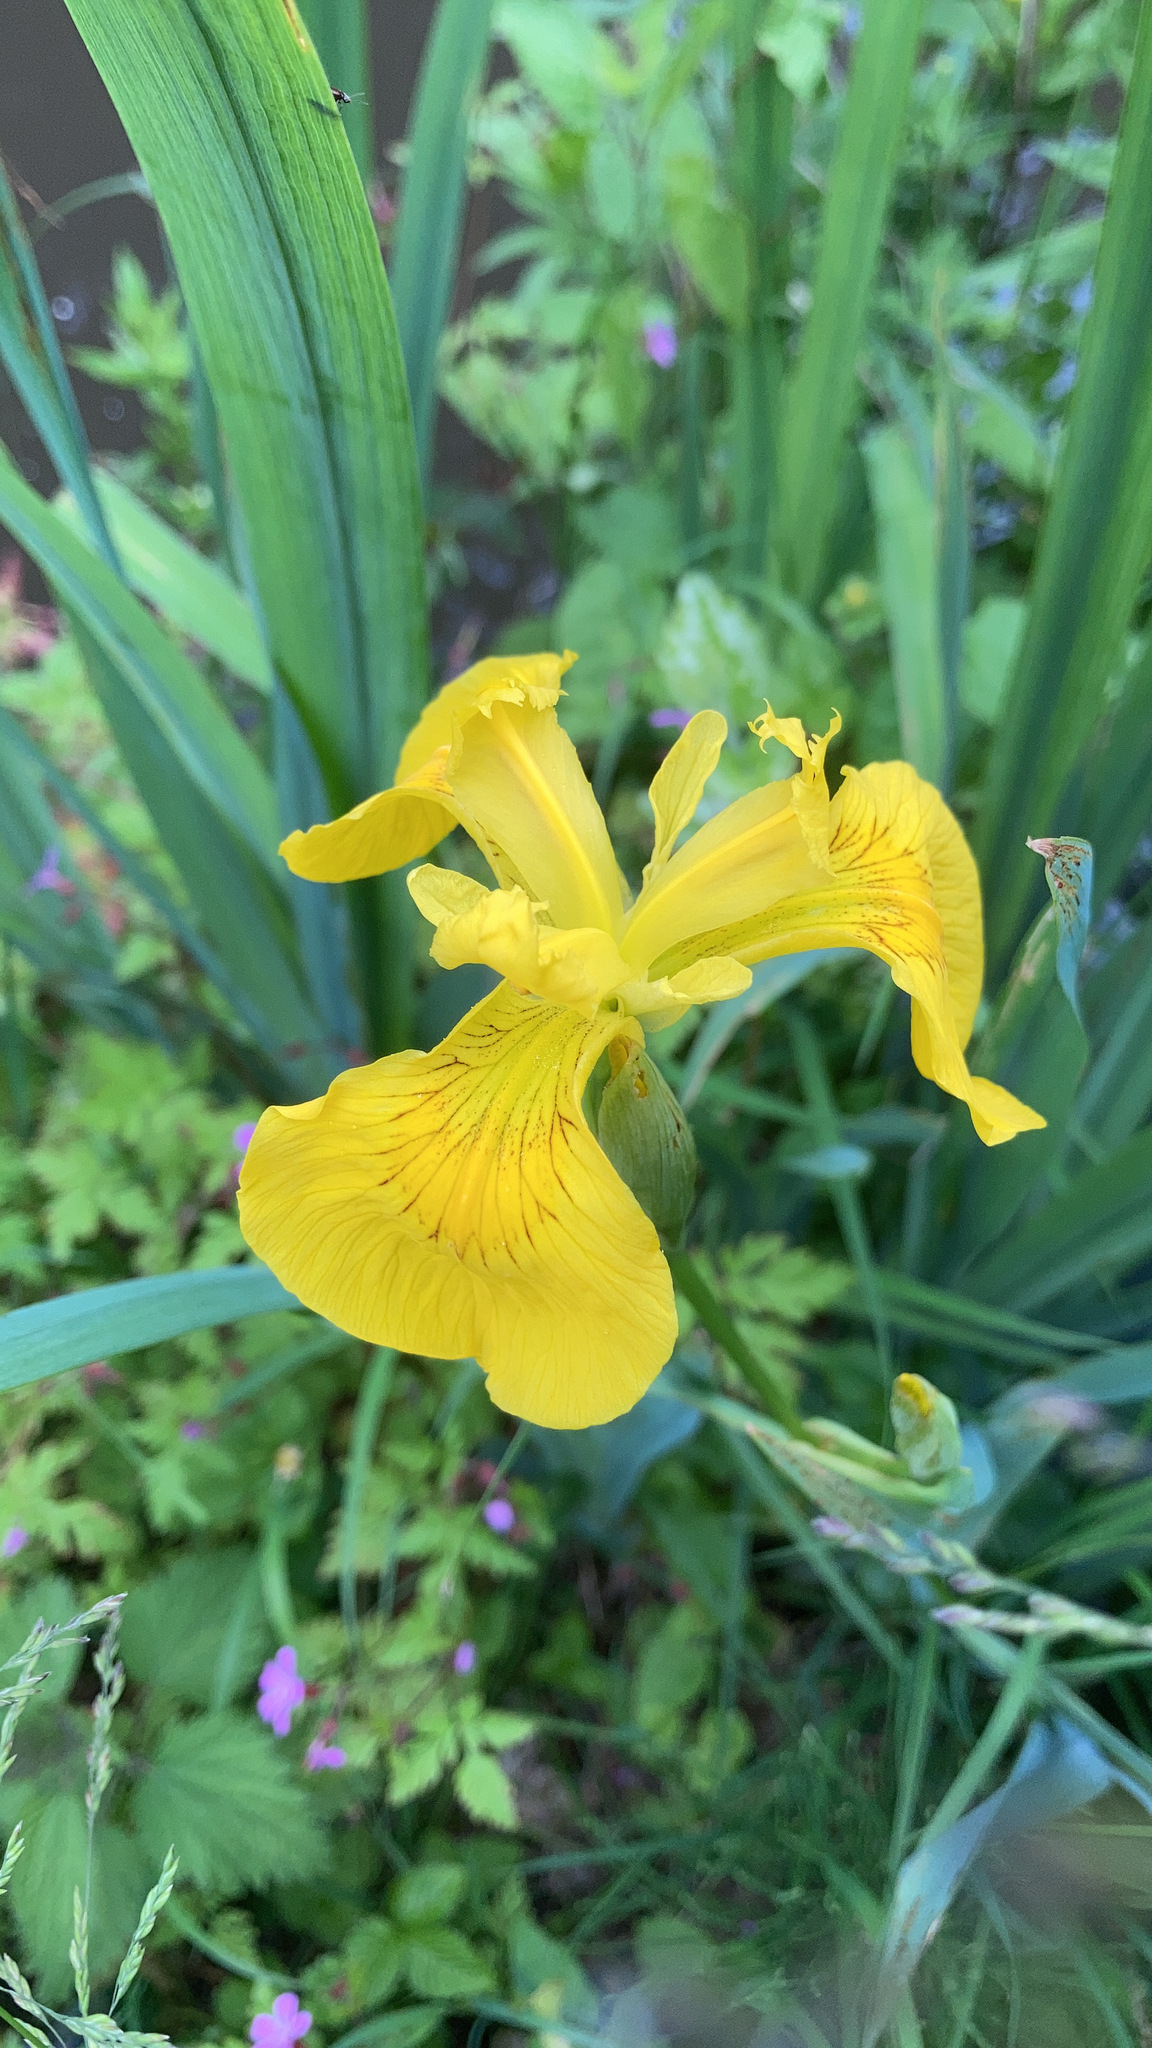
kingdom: Plantae
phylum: Tracheophyta
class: Liliopsida
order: Asparagales
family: Iridaceae
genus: Iris
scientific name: Iris pseudacorus
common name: Yellow flag
